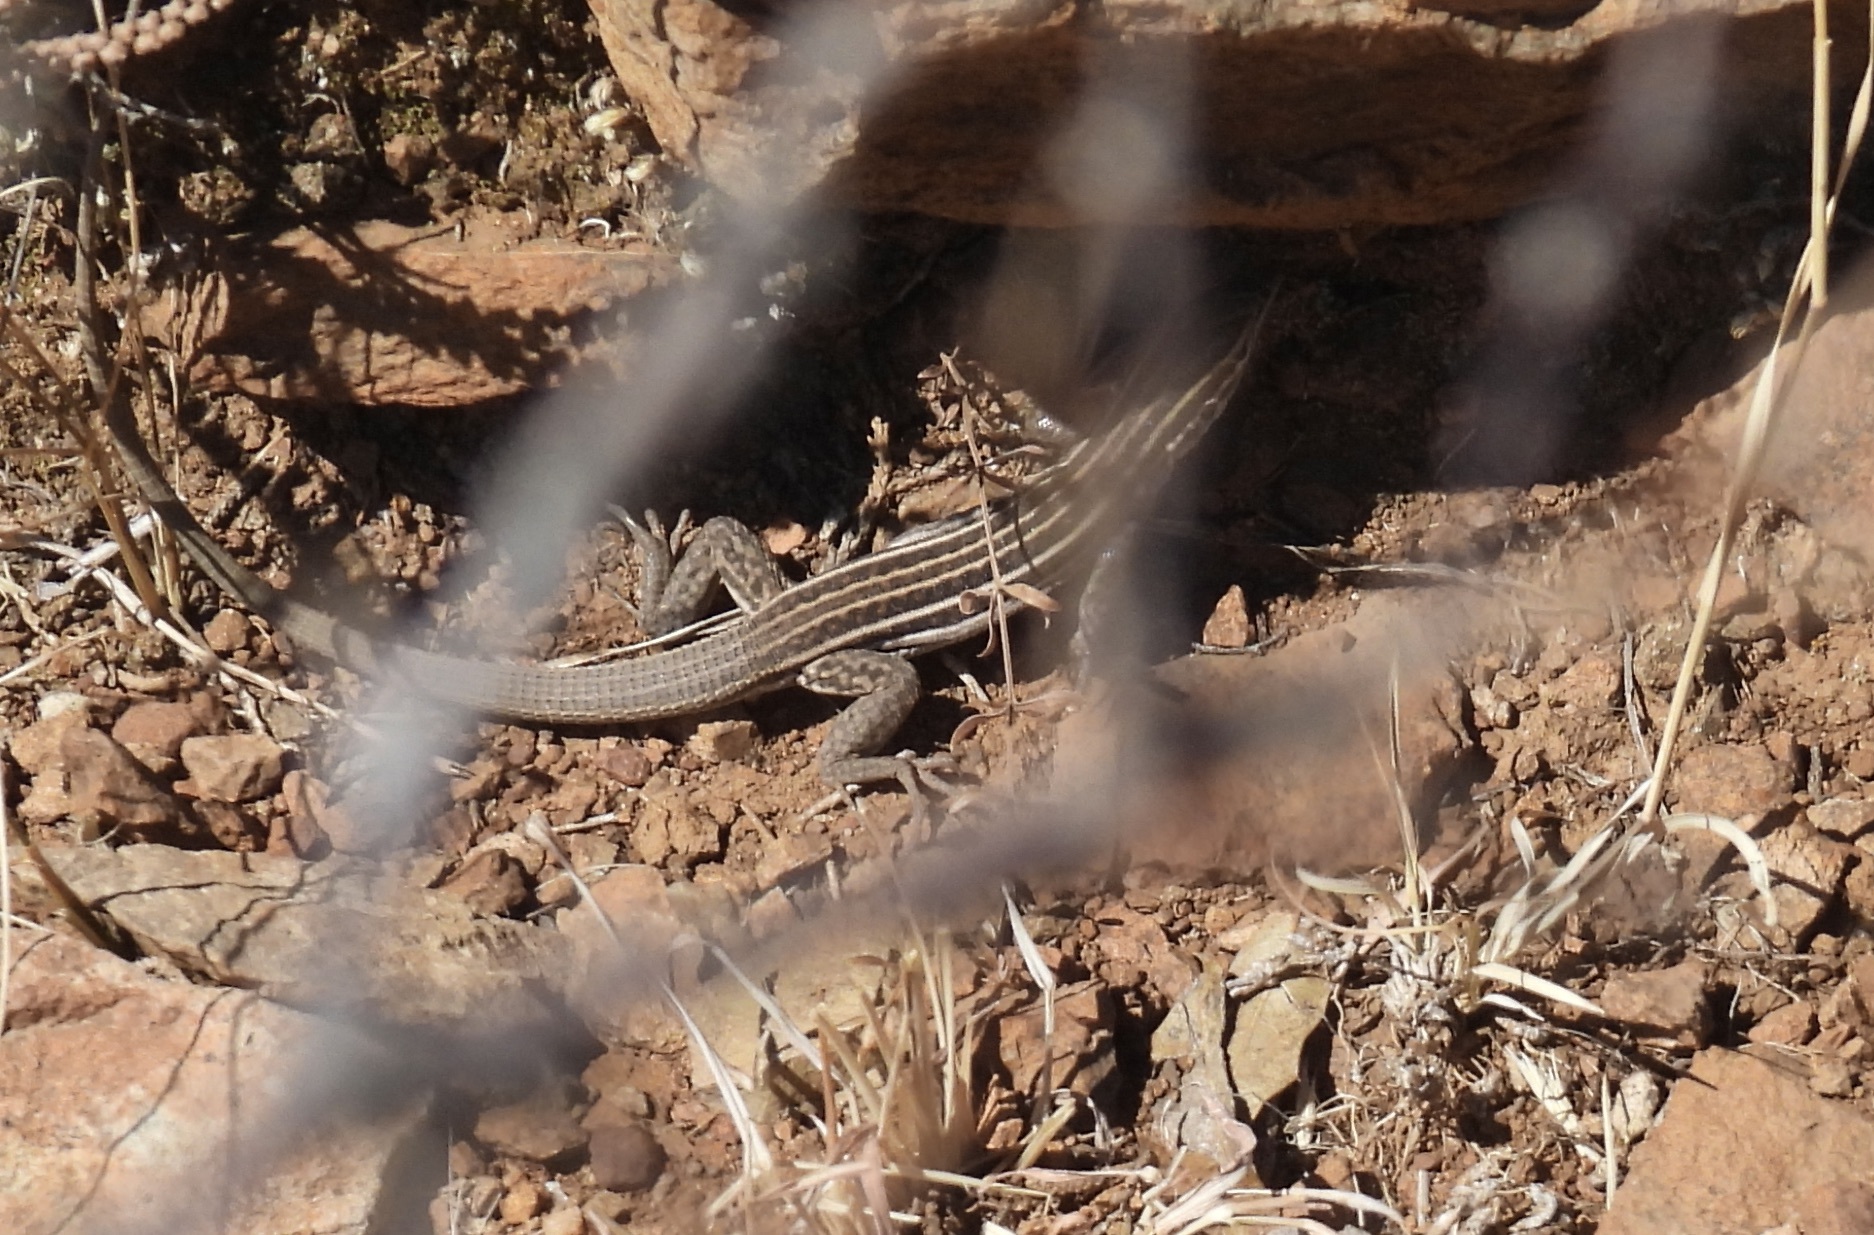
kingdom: Animalia
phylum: Chordata
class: Squamata
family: Teiidae
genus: Aspidoscelis
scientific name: Aspidoscelis exsanguis
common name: Chihuahuan spotted whiptail
